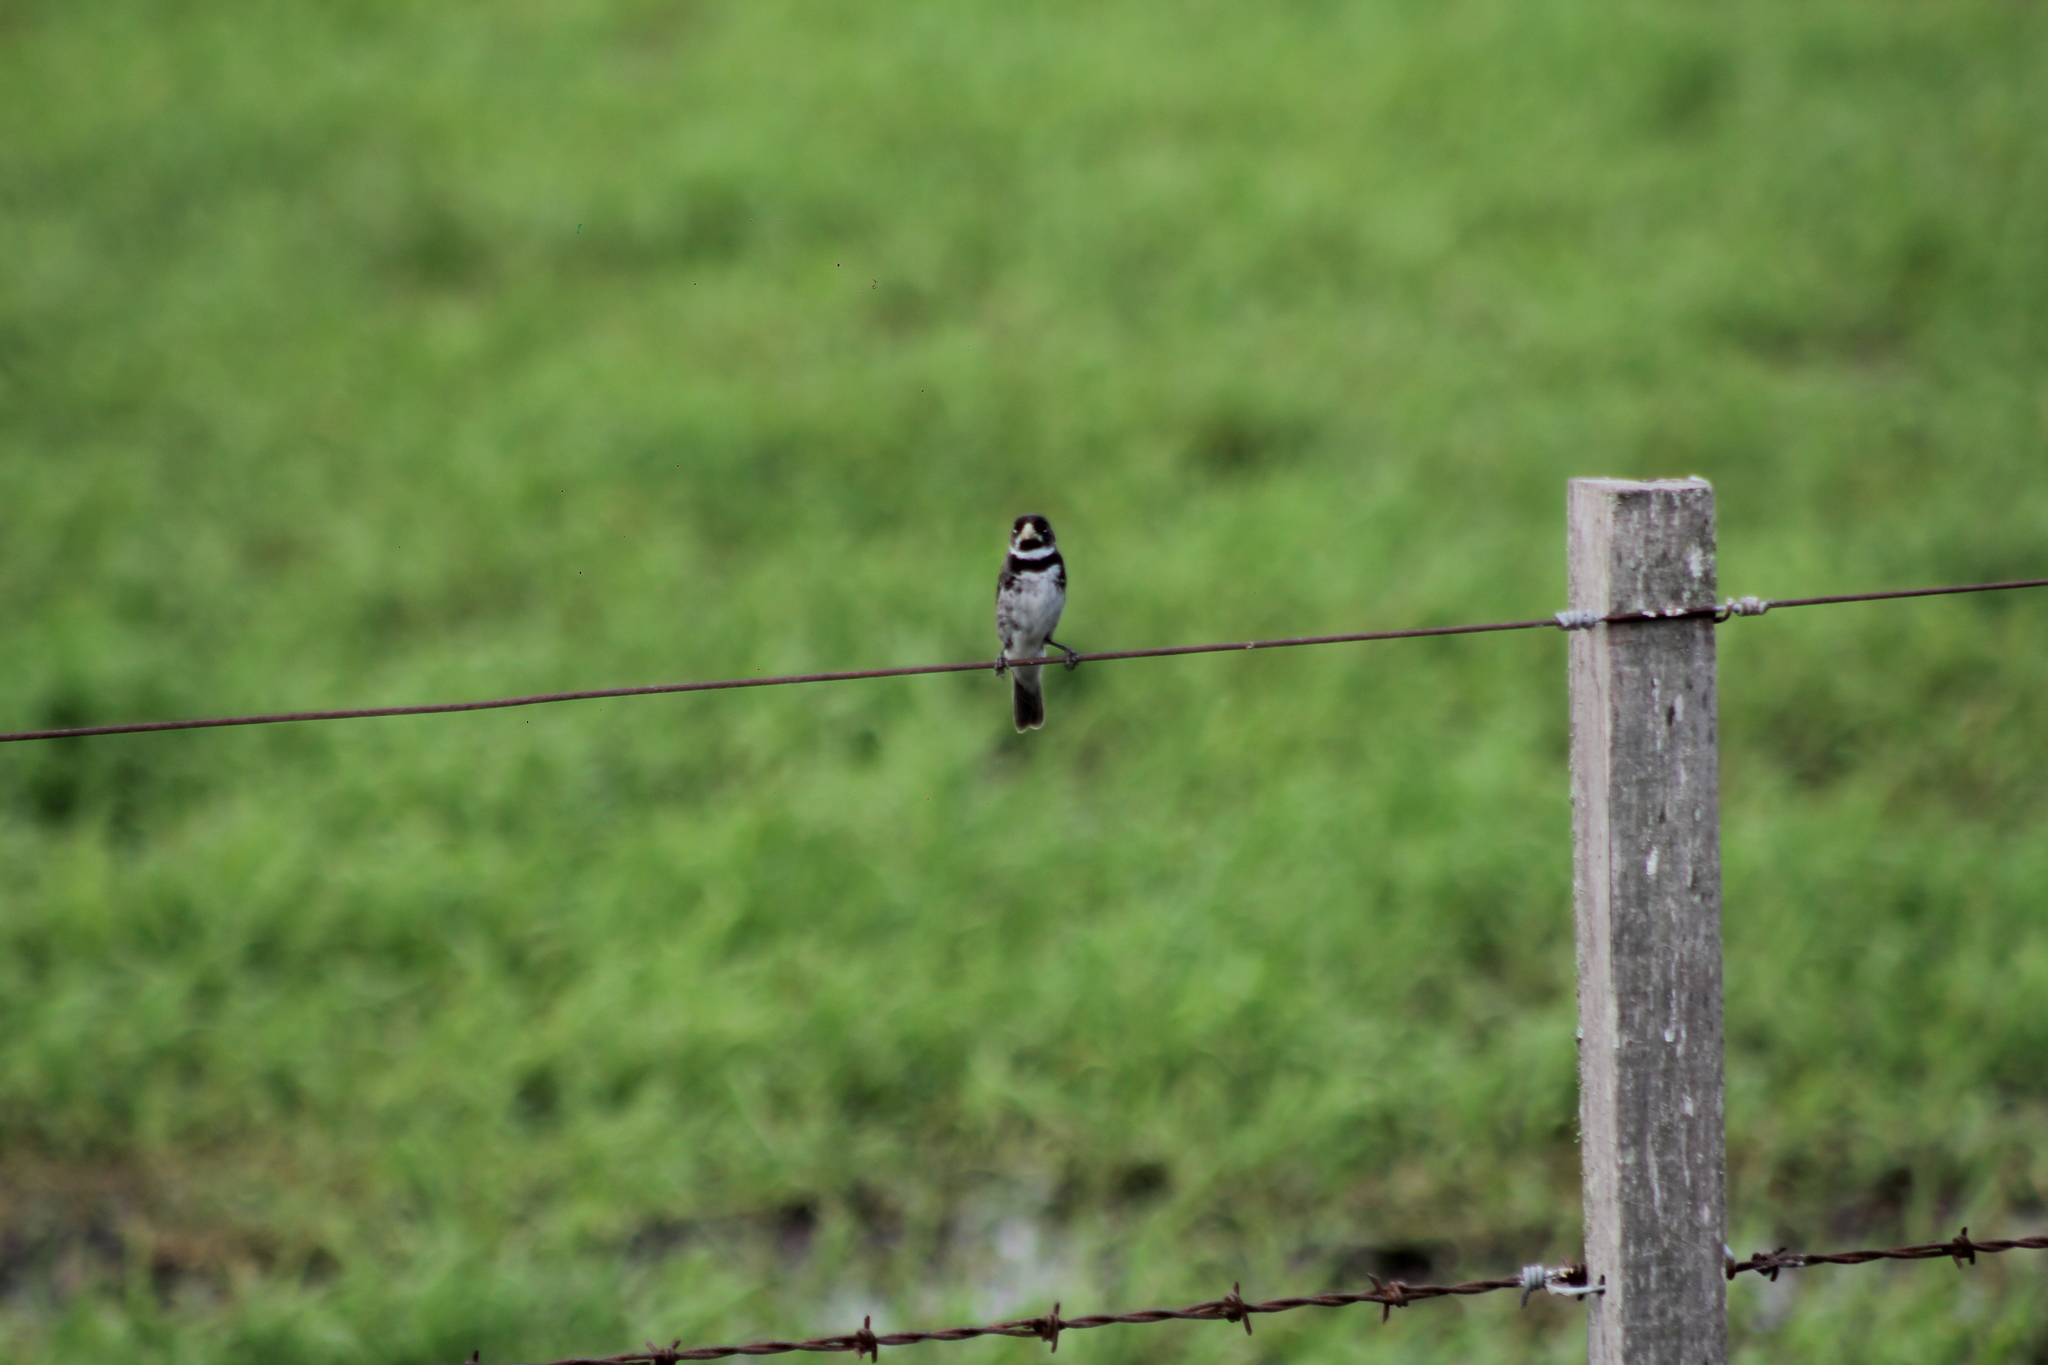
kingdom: Animalia
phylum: Chordata
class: Aves
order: Passeriformes
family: Thraupidae
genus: Sporophila
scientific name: Sporophila caerulescens
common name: Double-collared seedeater
